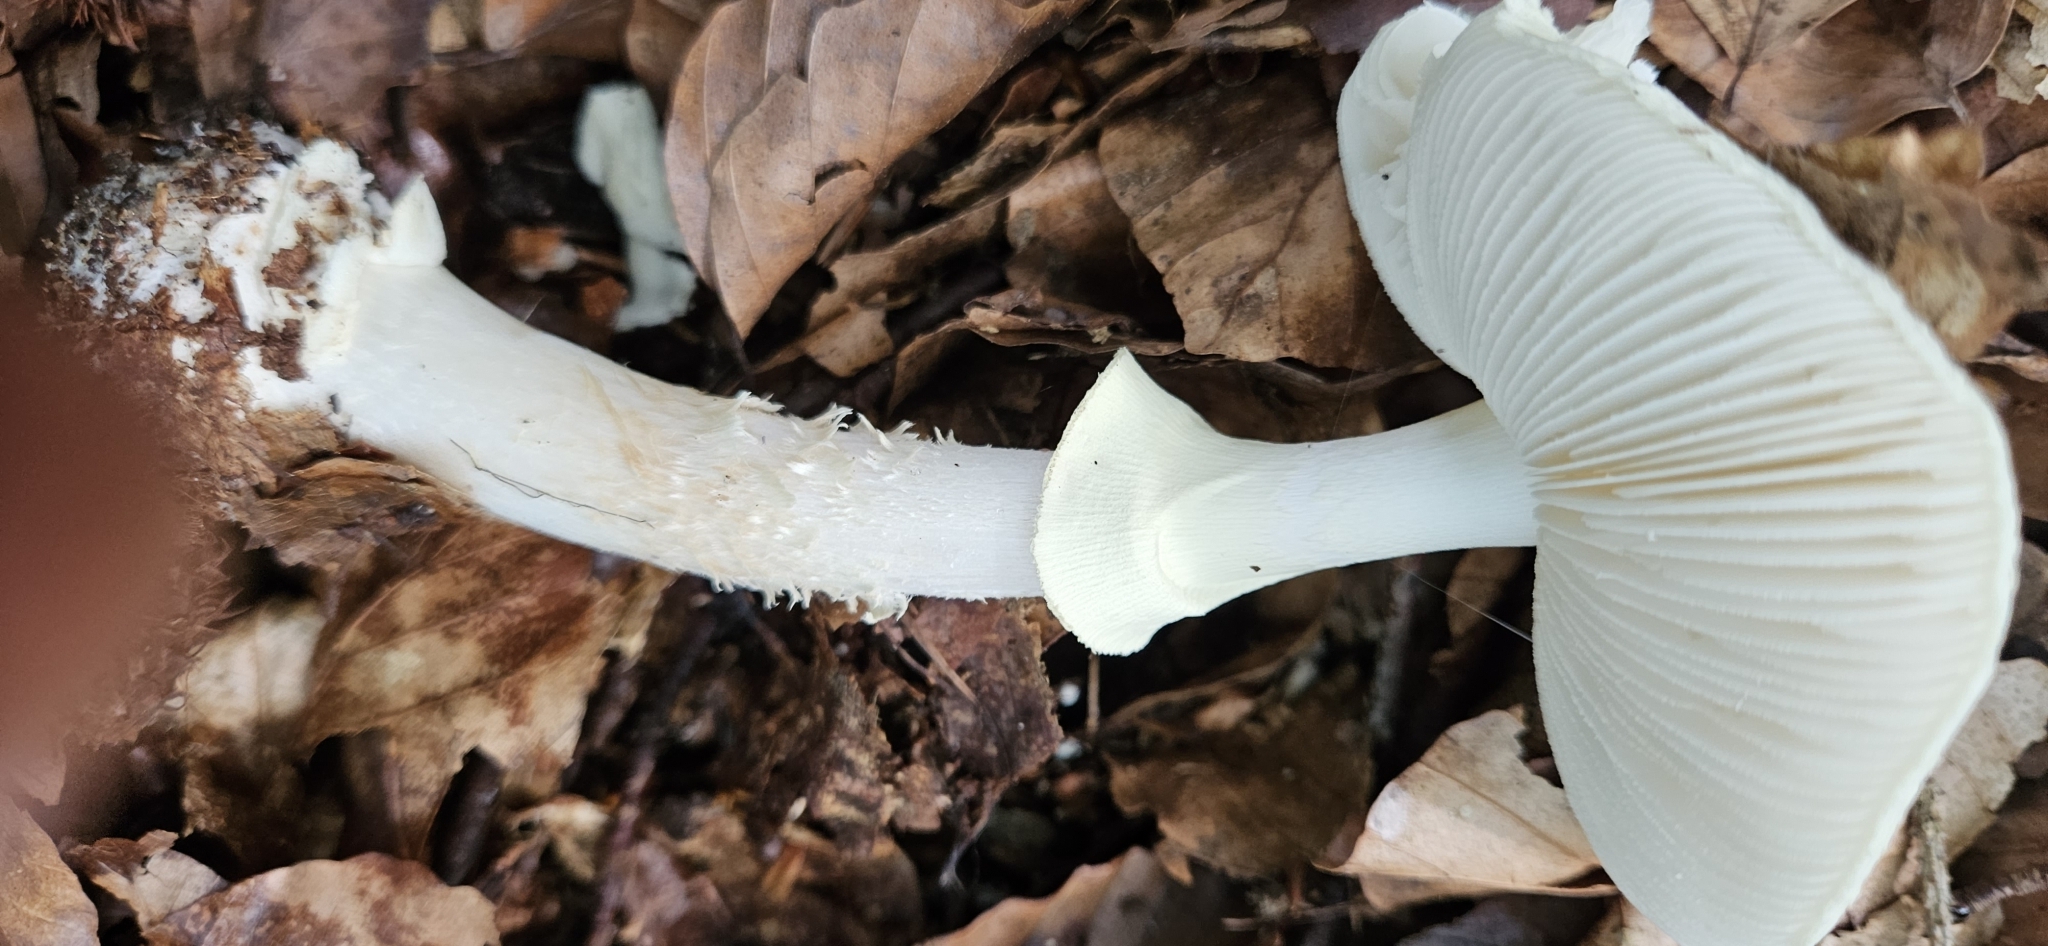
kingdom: Fungi
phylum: Basidiomycota
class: Agaricomycetes
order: Agaricales
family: Amanitaceae
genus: Amanita
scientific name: Amanita citrina
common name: False death-cap
